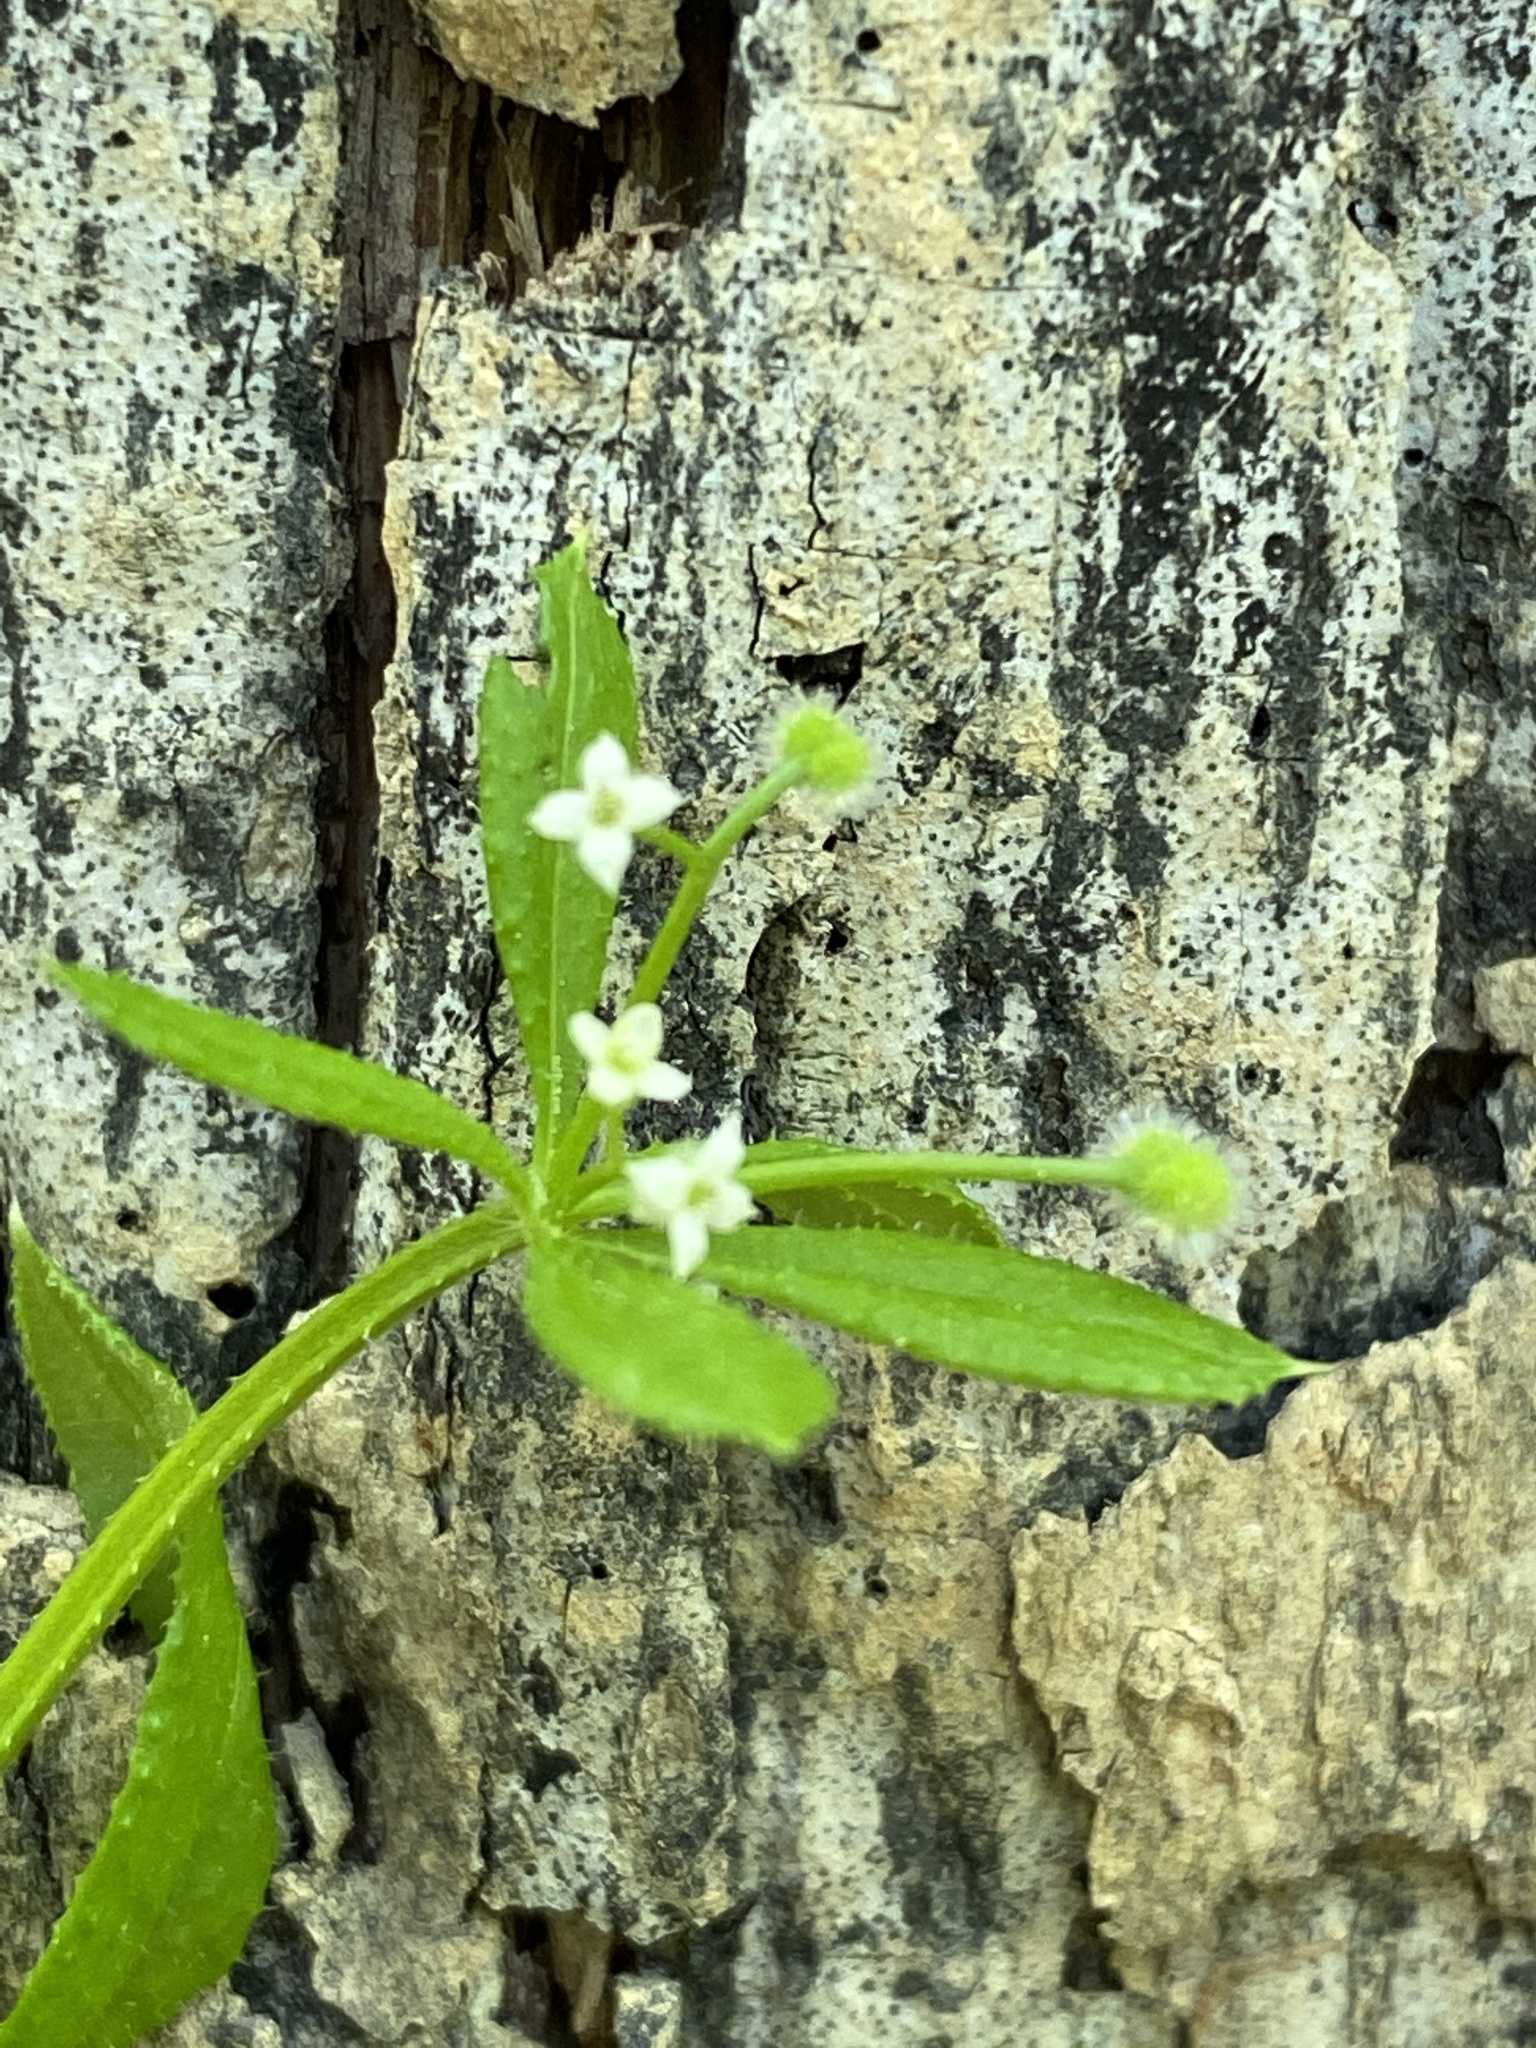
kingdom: Plantae
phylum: Tracheophyta
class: Magnoliopsida
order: Gentianales
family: Rubiaceae
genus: Galium
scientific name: Galium aparine
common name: Cleavers
